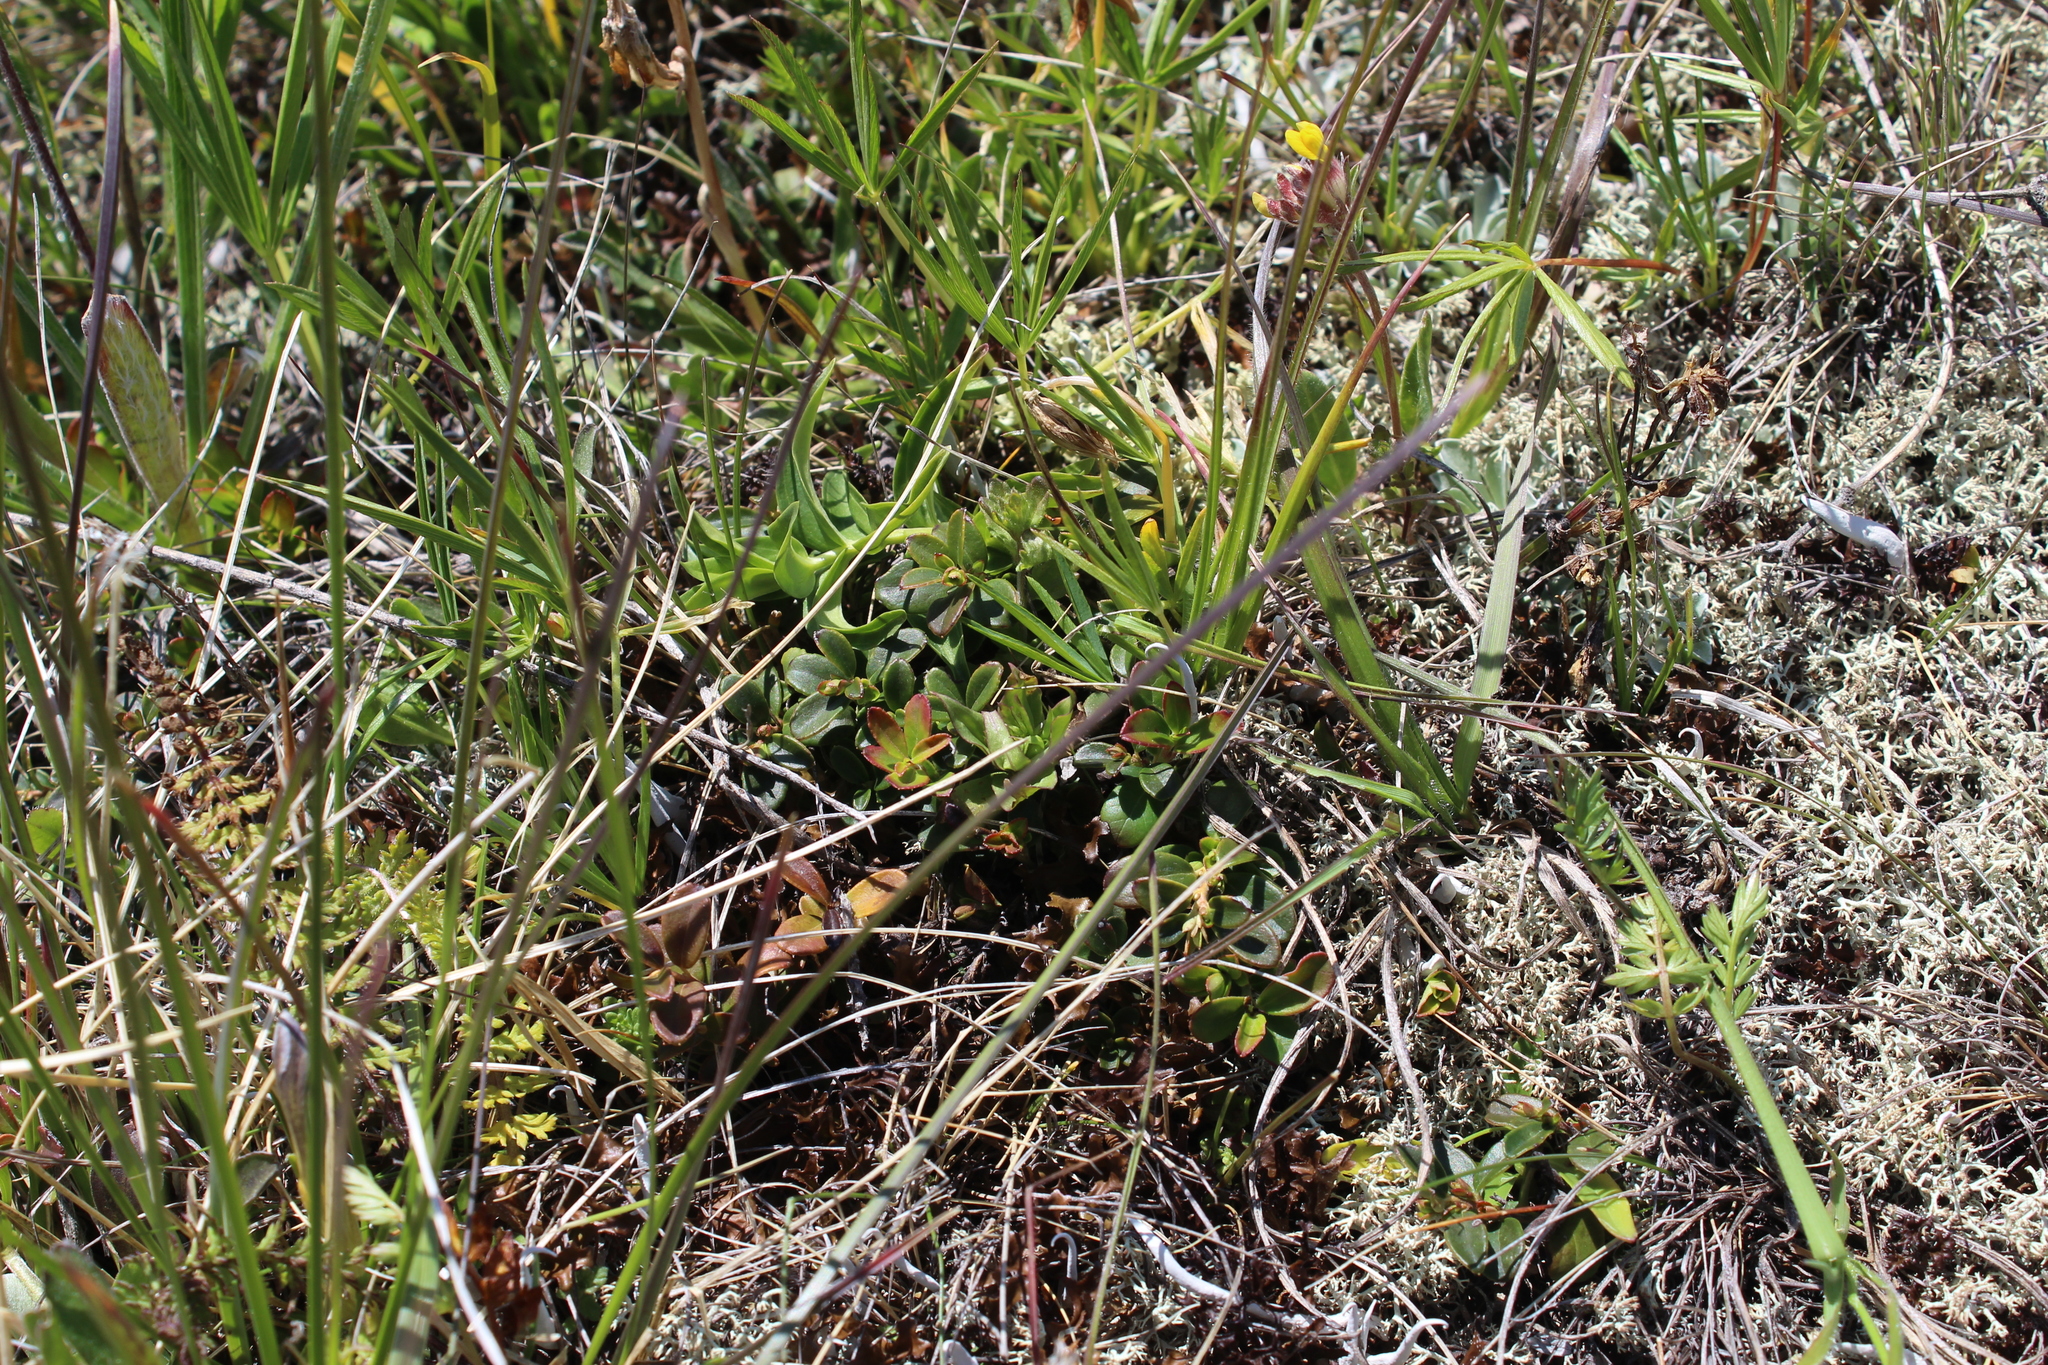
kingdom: Plantae
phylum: Tracheophyta
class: Magnoliopsida
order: Ericales
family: Ericaceae
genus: Vaccinium
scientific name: Vaccinium vitis-idaea
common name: Cowberry
